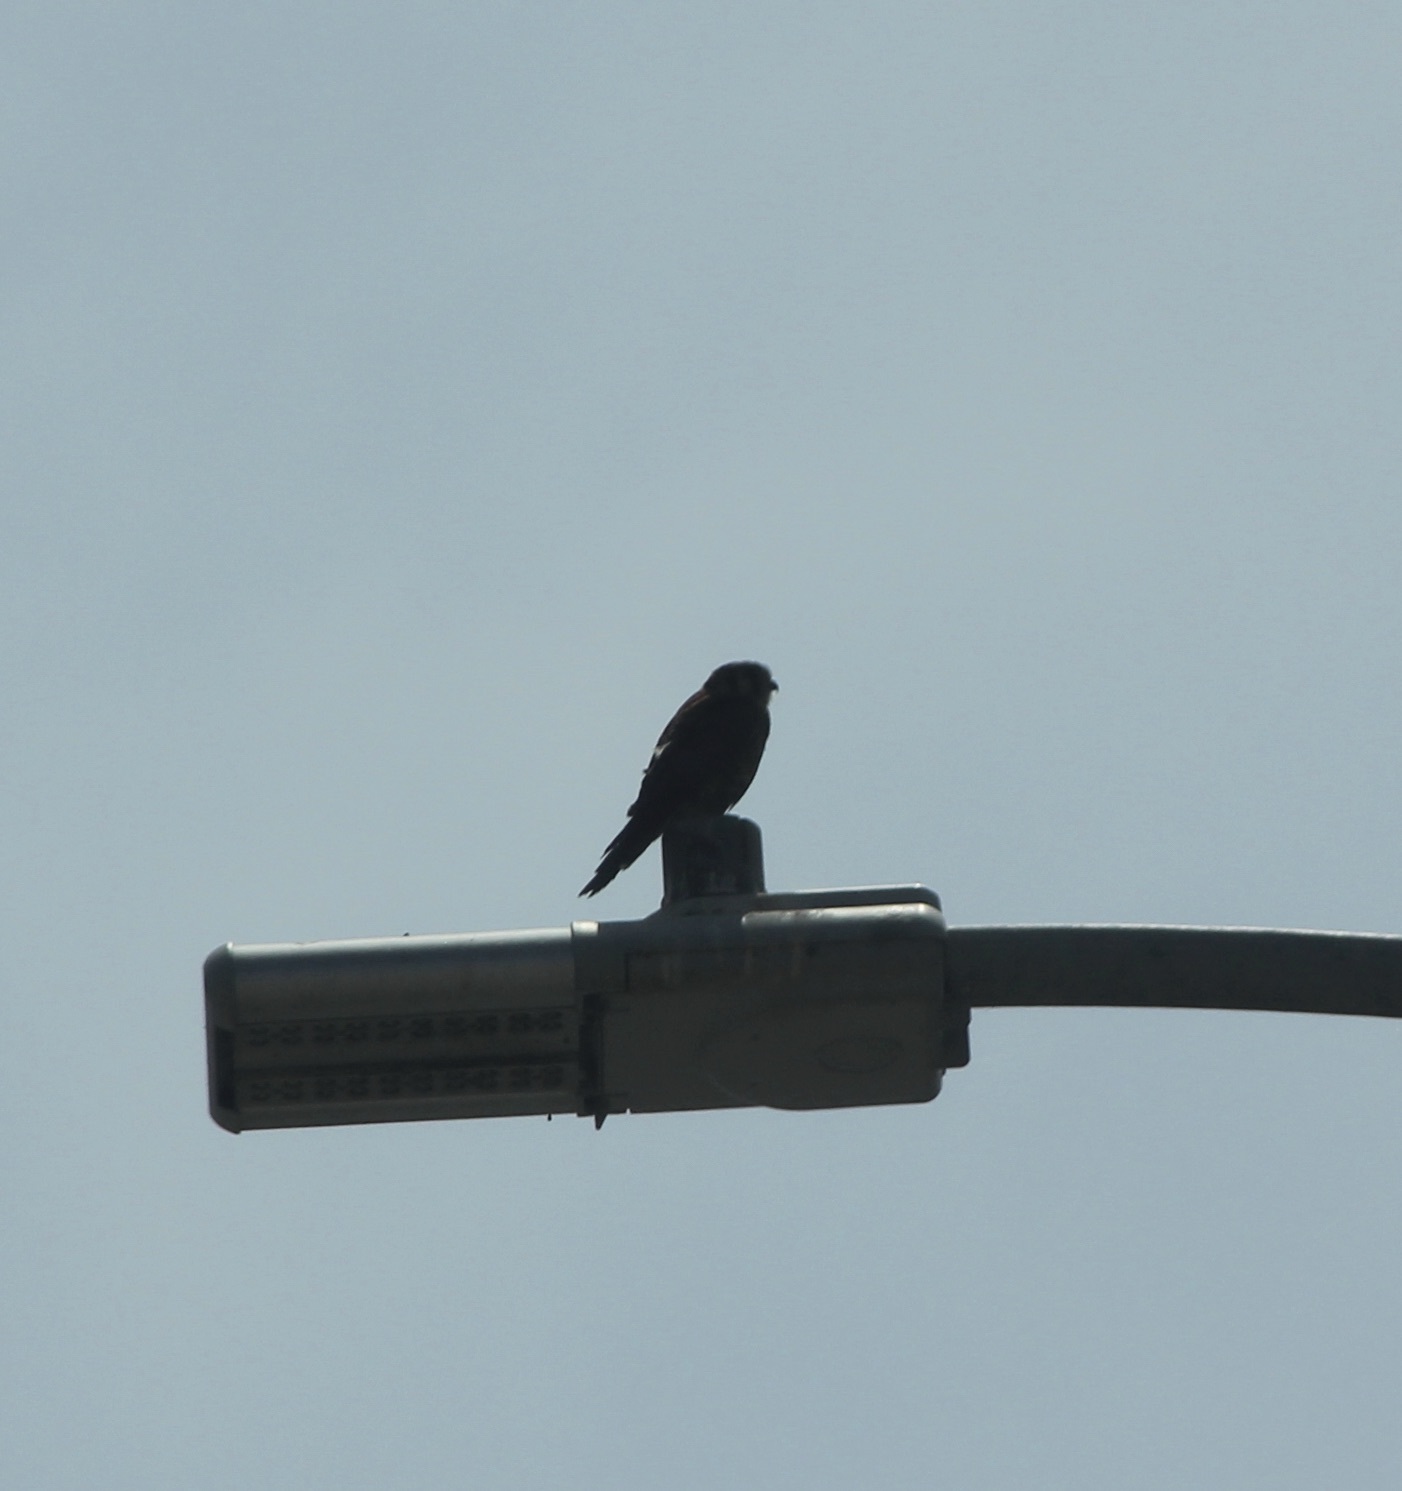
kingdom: Animalia
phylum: Chordata
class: Aves
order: Falconiformes
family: Falconidae
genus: Falco
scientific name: Falco sparverius
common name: American kestrel
